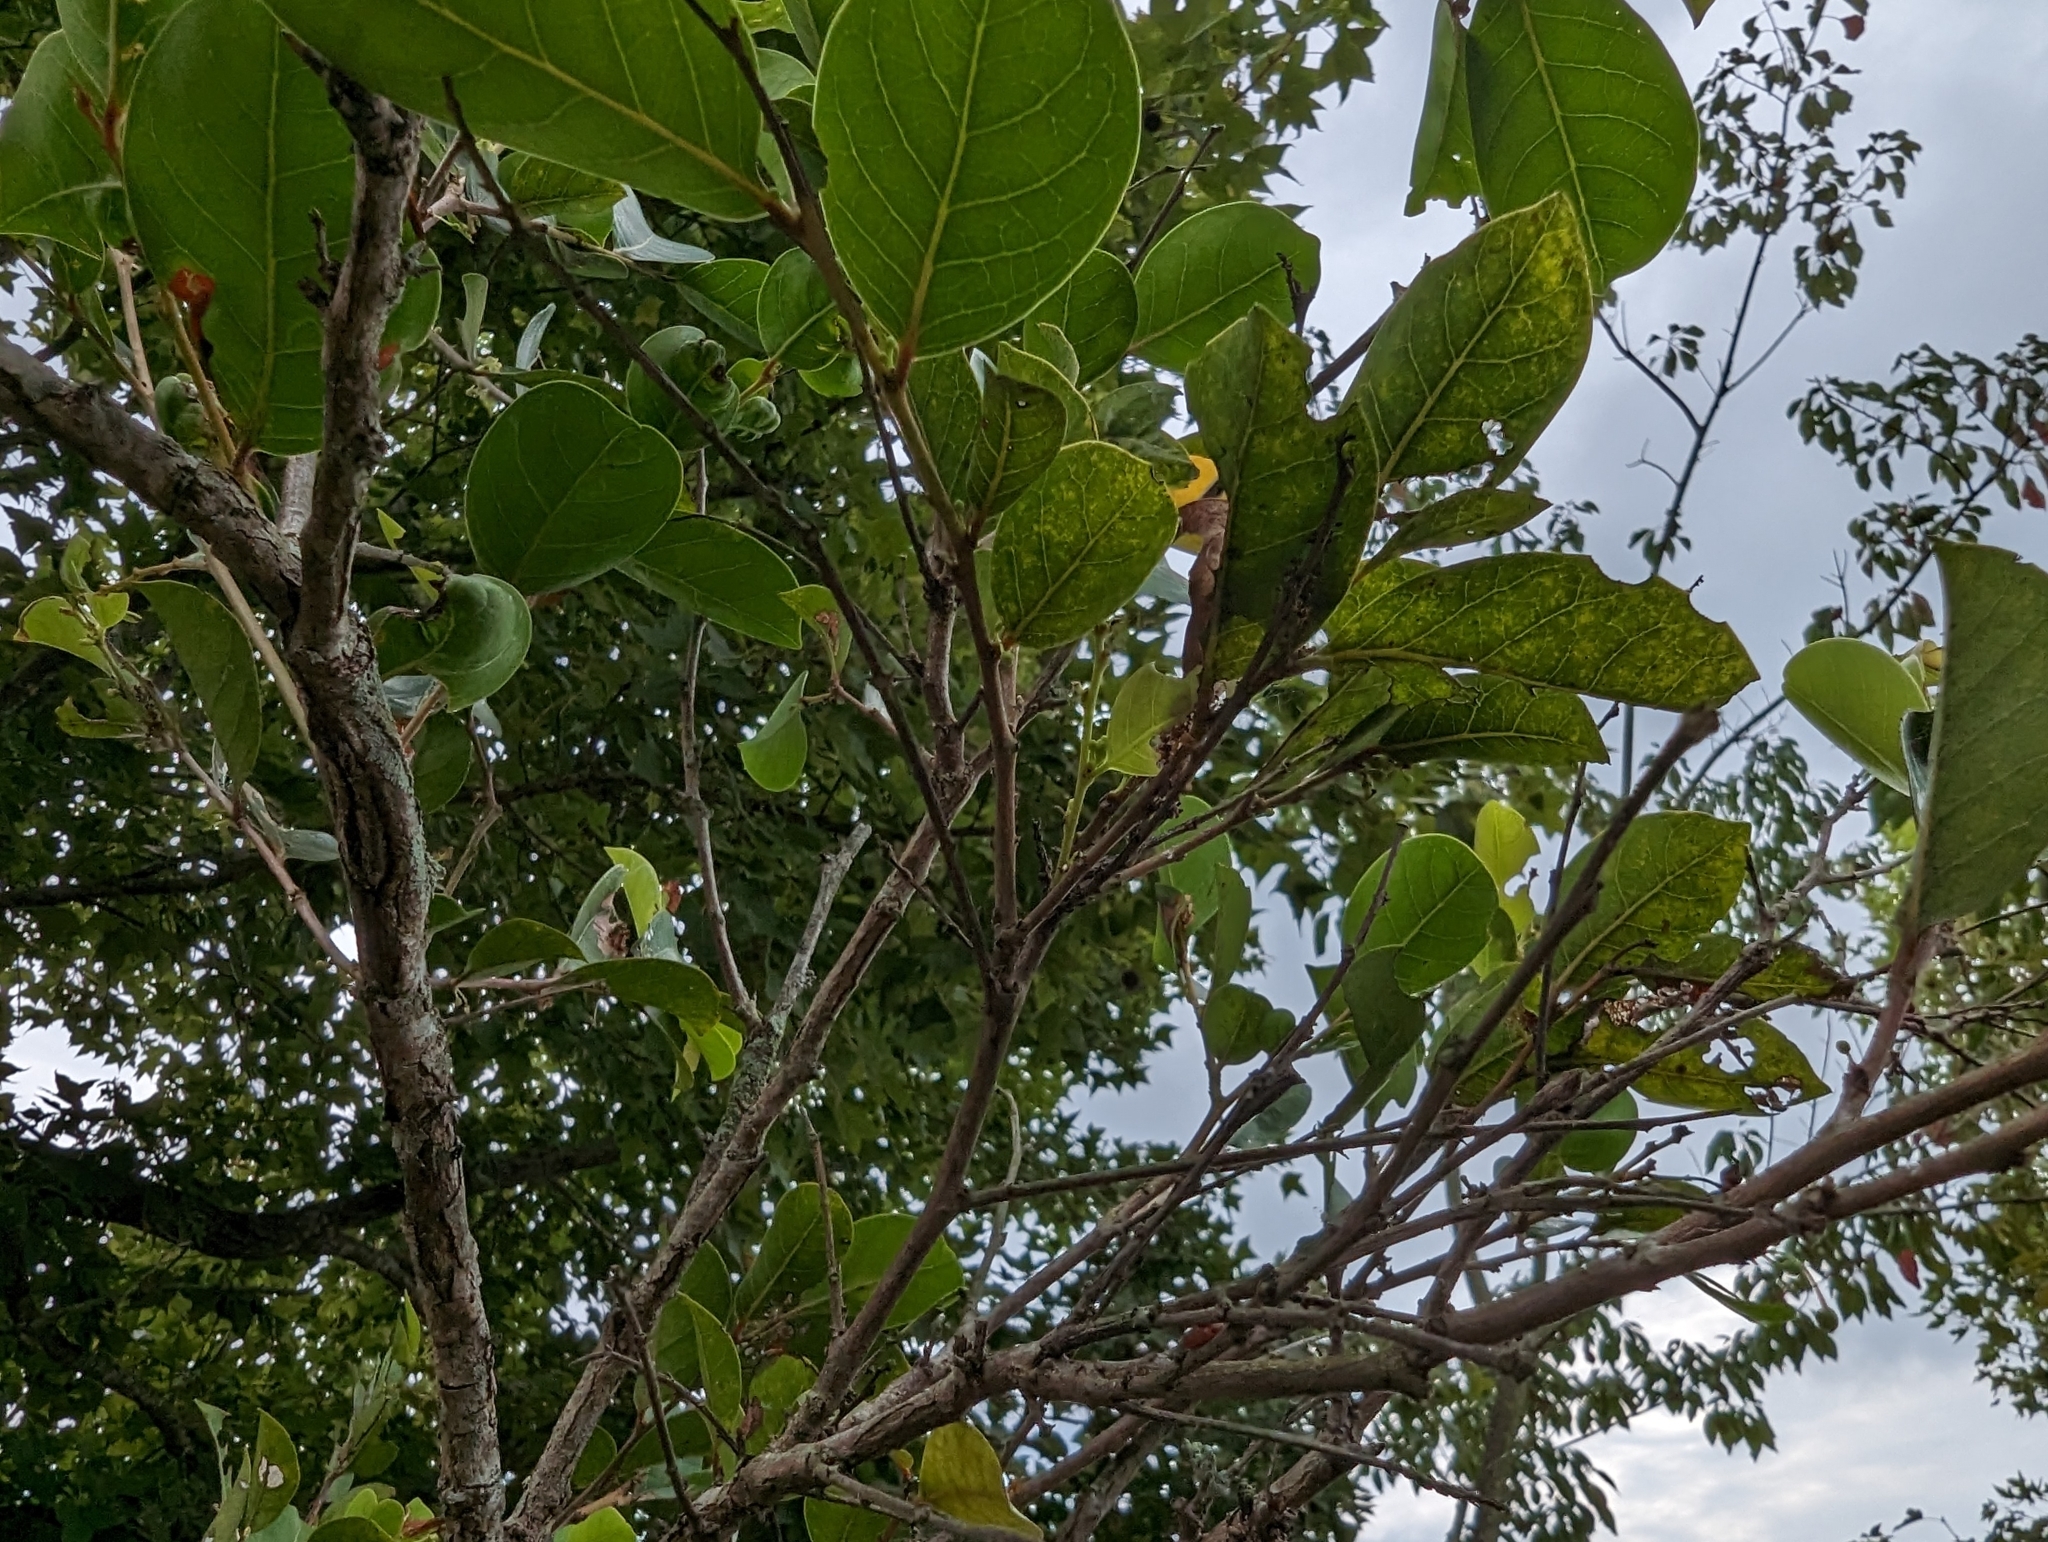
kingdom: Plantae
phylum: Tracheophyta
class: Magnoliopsida
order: Malpighiales
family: Phyllanthaceae
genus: Glochidion
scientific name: Glochidion rubrum
